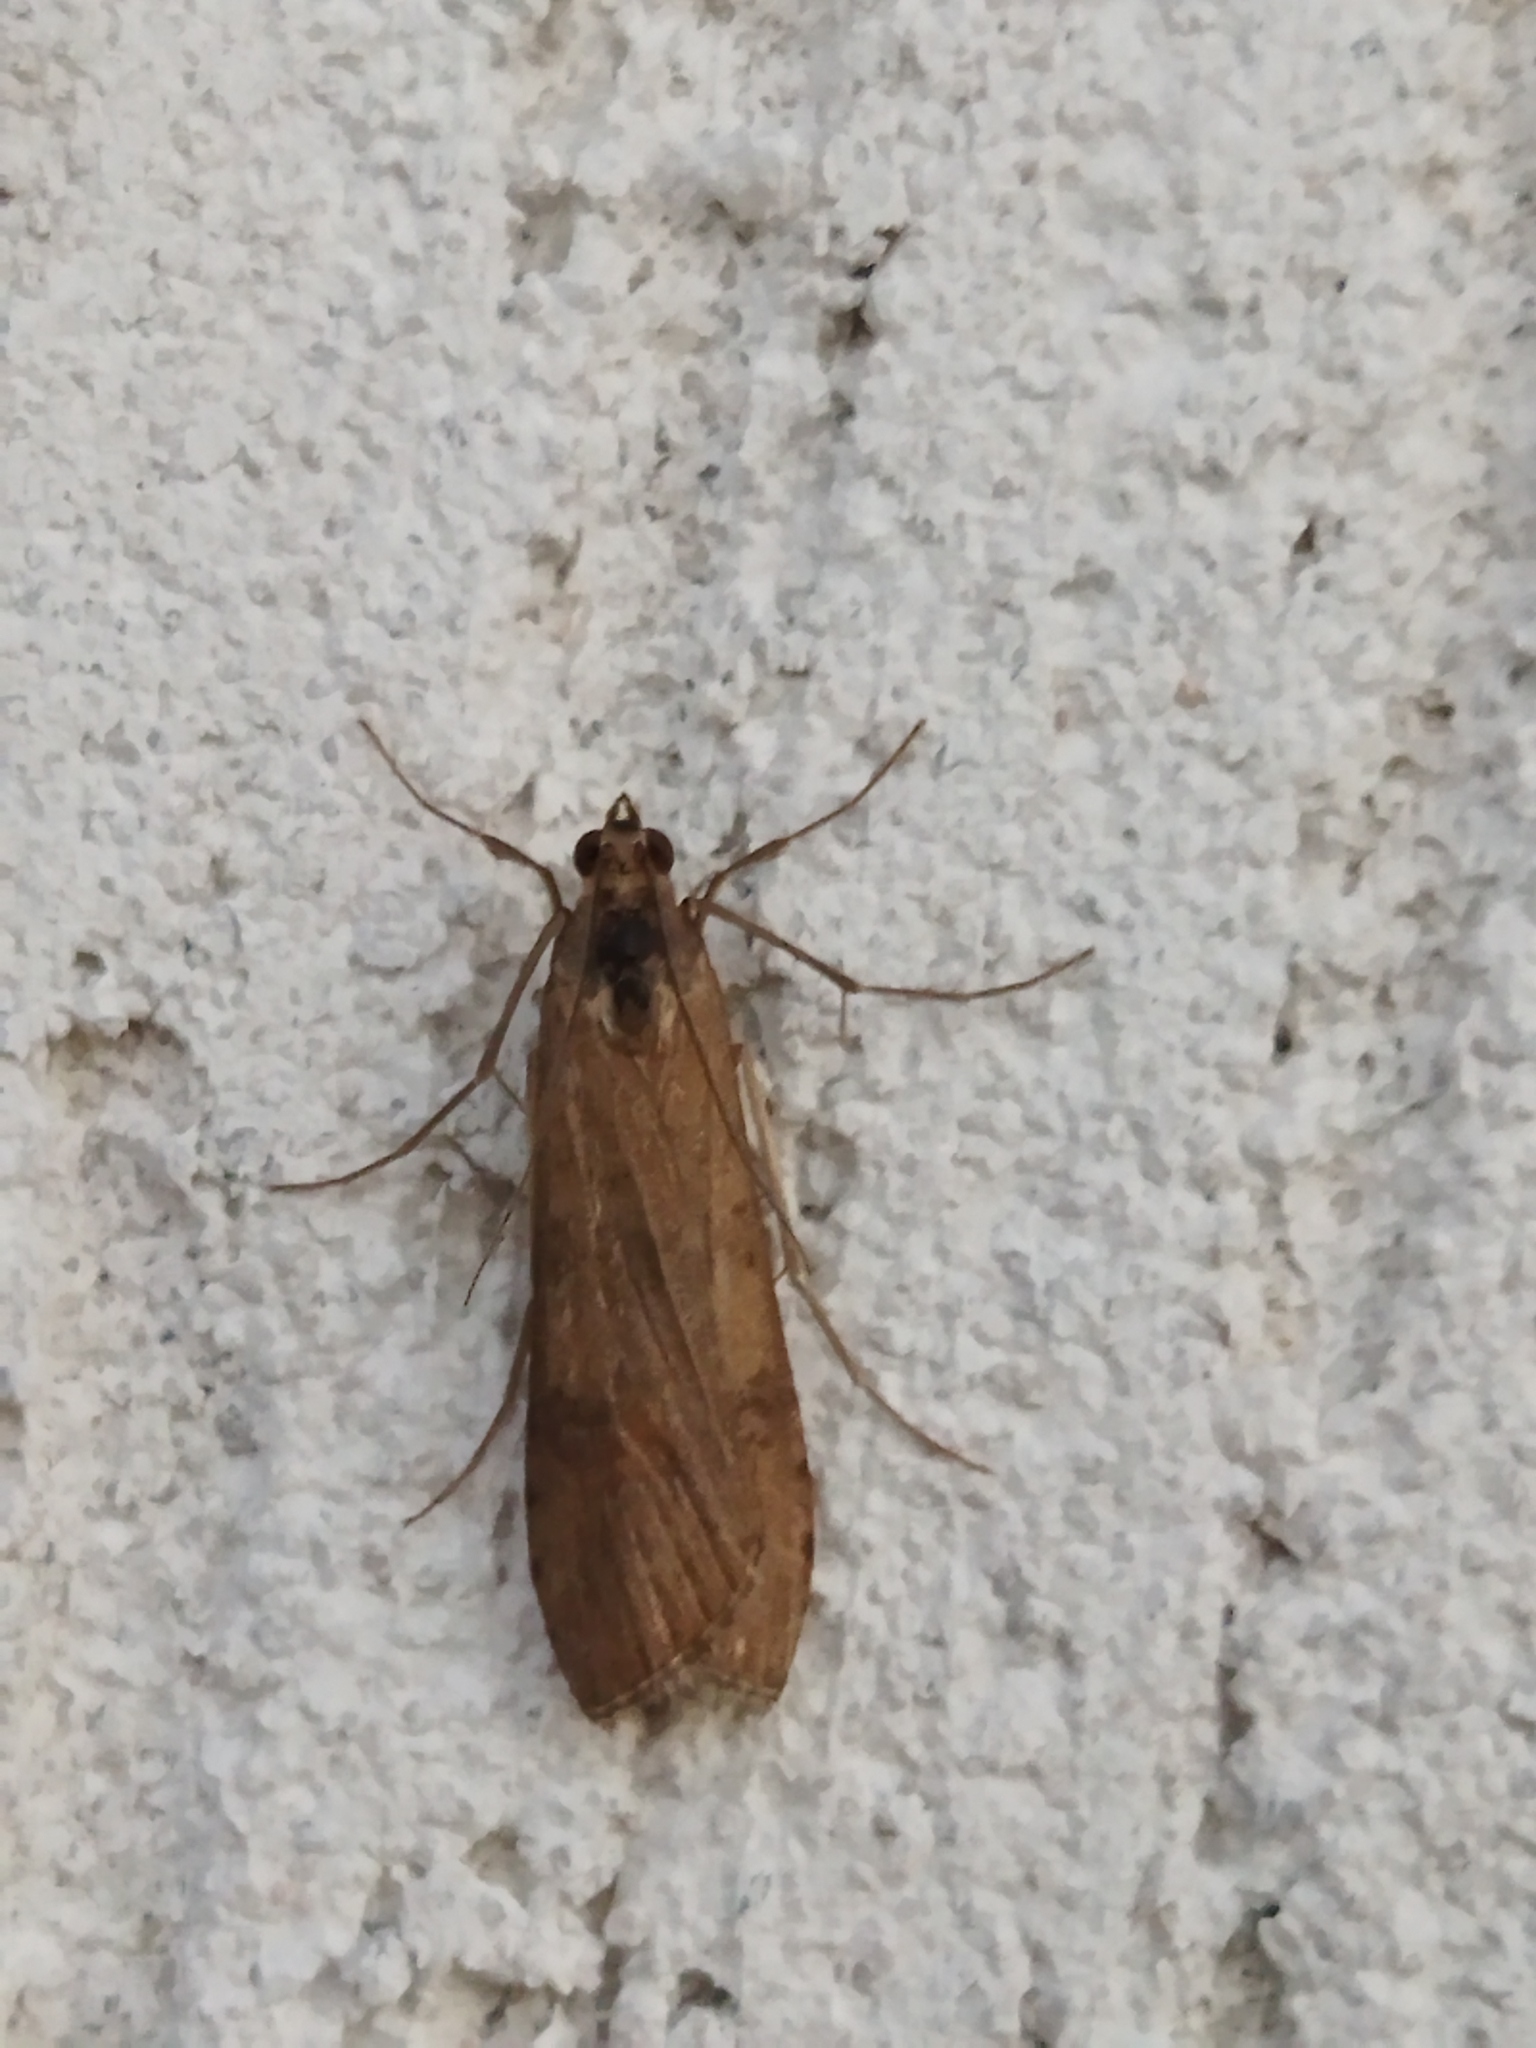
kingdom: Animalia
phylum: Arthropoda
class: Insecta
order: Lepidoptera
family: Crambidae
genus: Nomophila
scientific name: Nomophila noctuella
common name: Rush veneer
